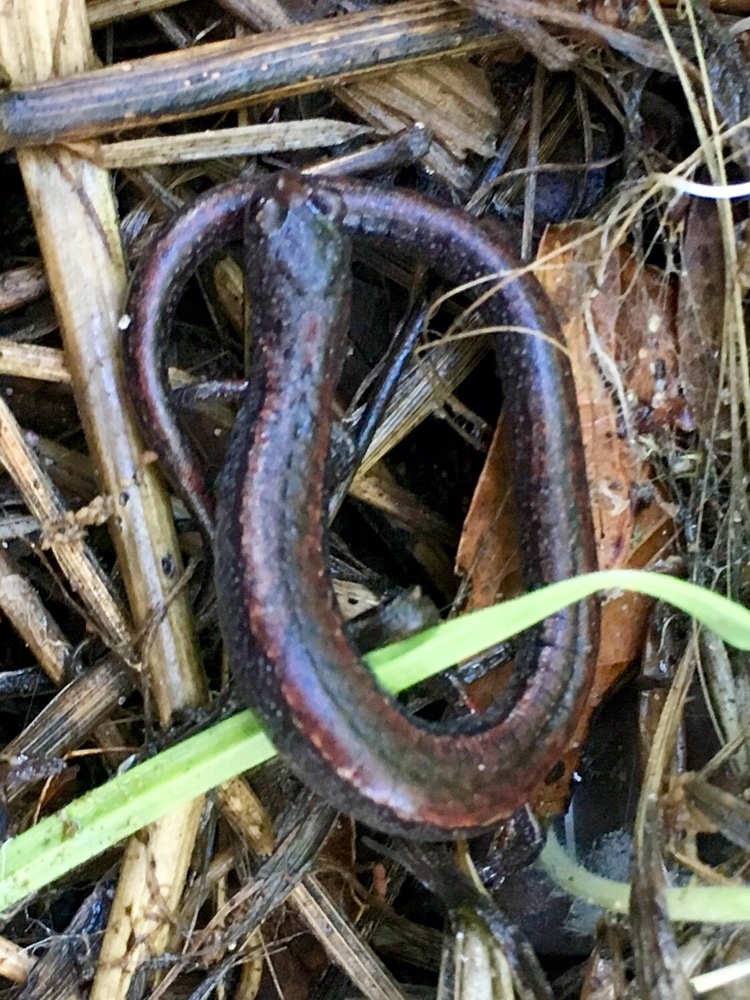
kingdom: Animalia
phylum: Chordata
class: Amphibia
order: Caudata
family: Plethodontidae
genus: Batrachoseps
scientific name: Batrachoseps luciae
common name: Santa lucia mountains slender salamander
